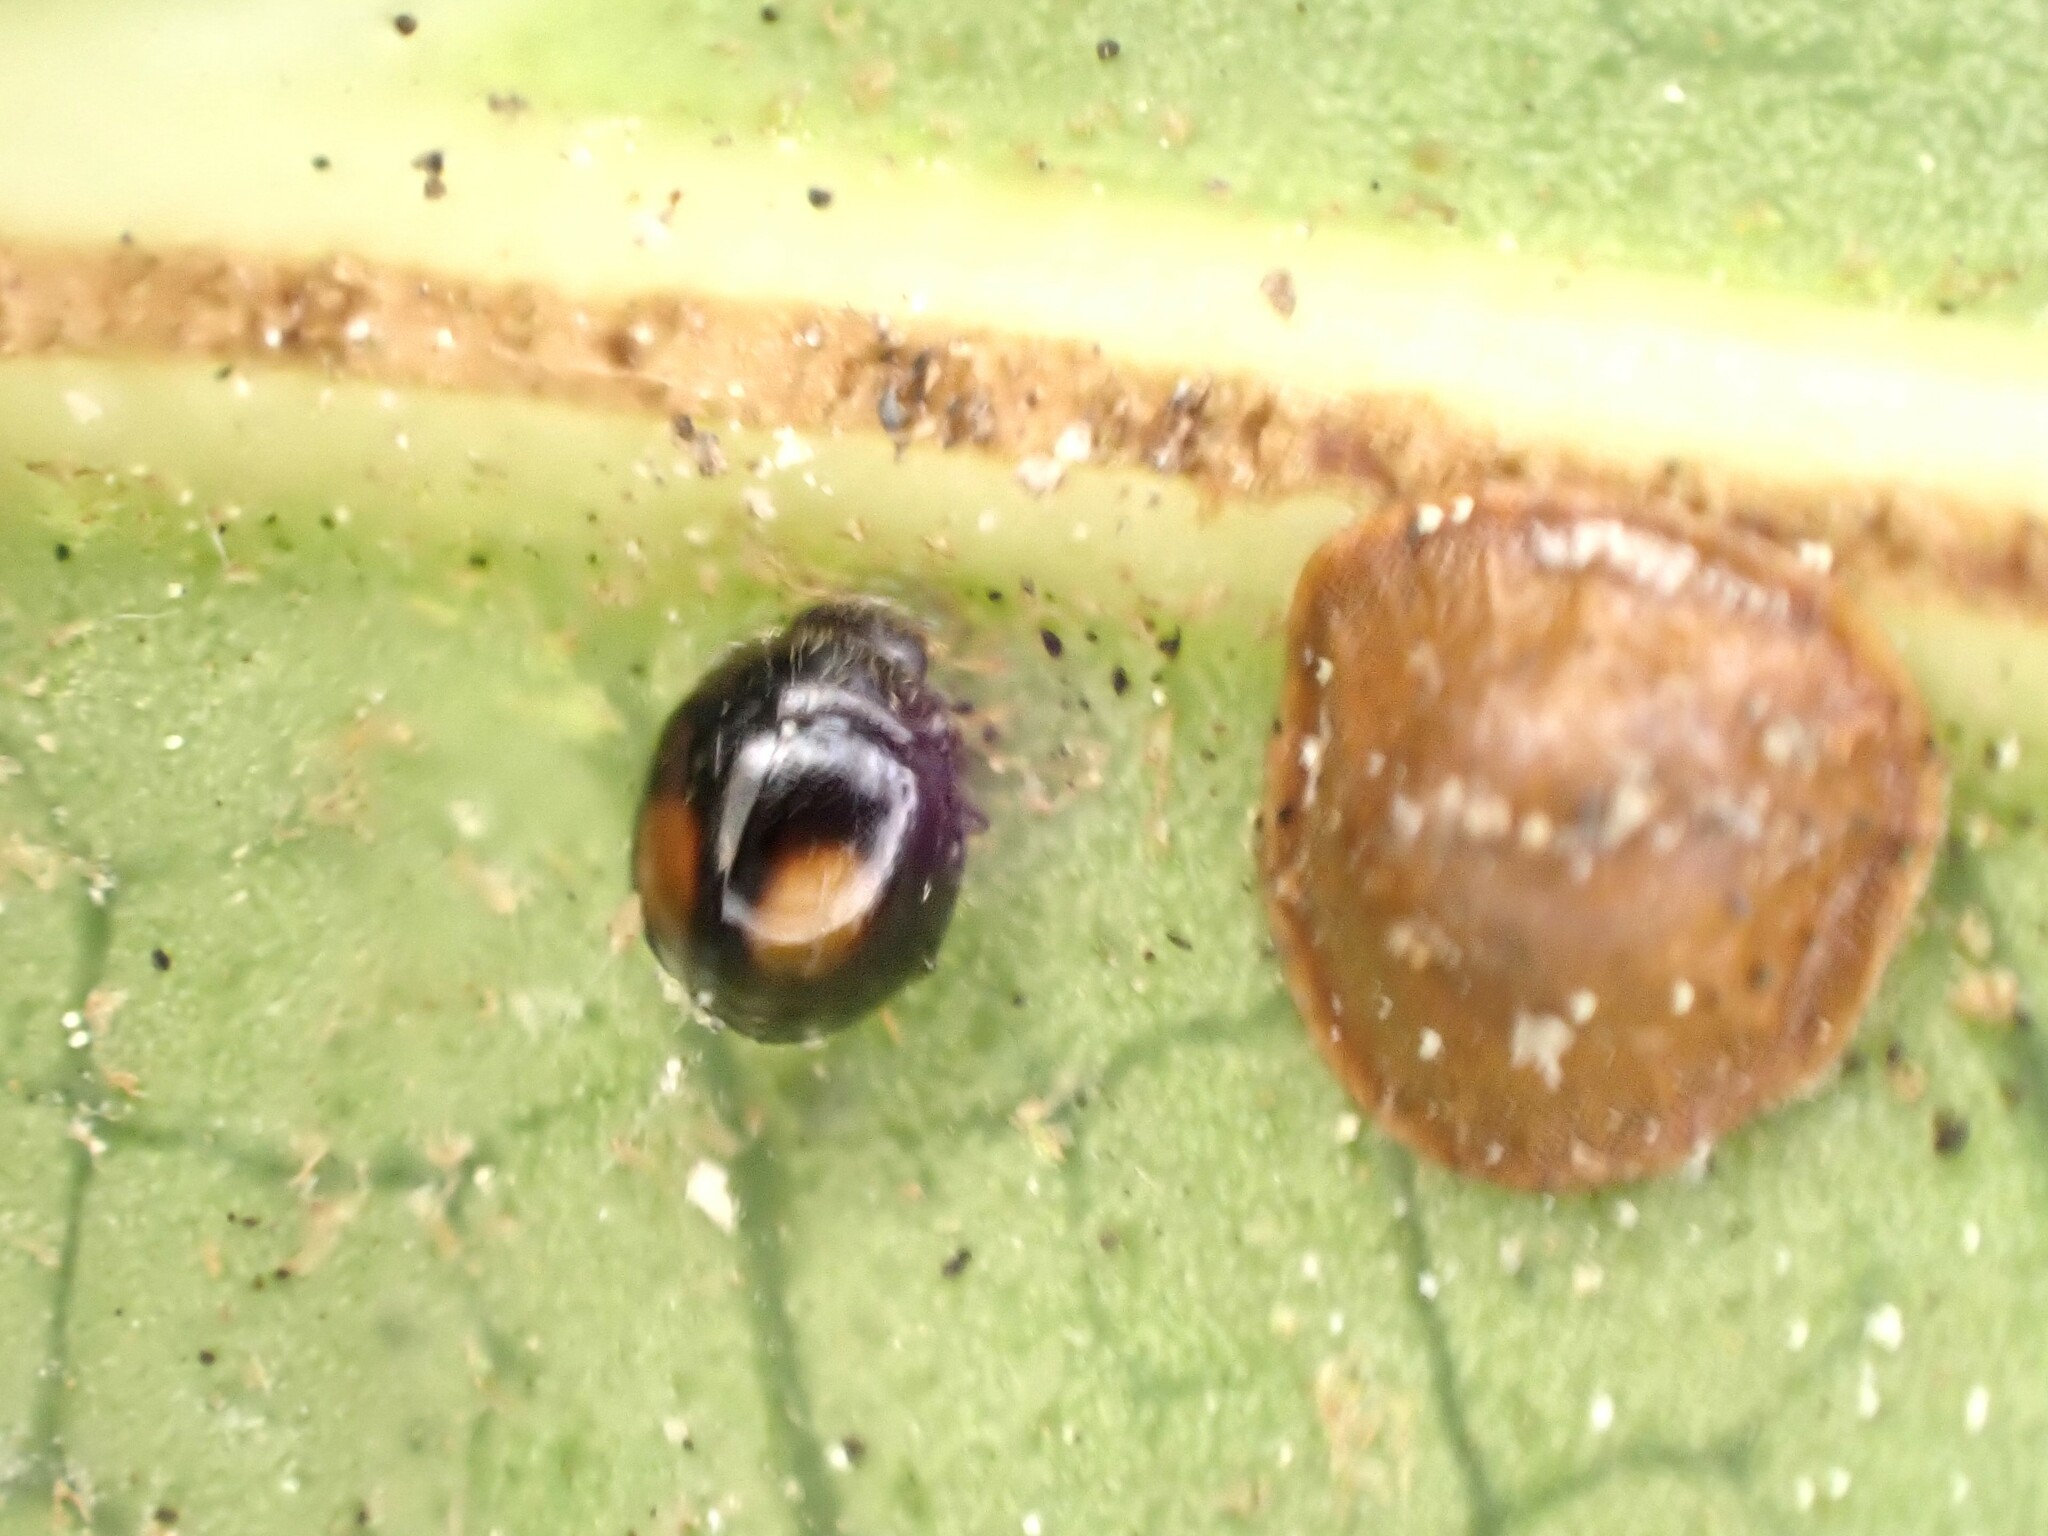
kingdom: Animalia
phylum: Arthropoda
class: Insecta
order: Coleoptera
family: Coccinellidae
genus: Serangium
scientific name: Serangium maculigerum
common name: Lady beetle
